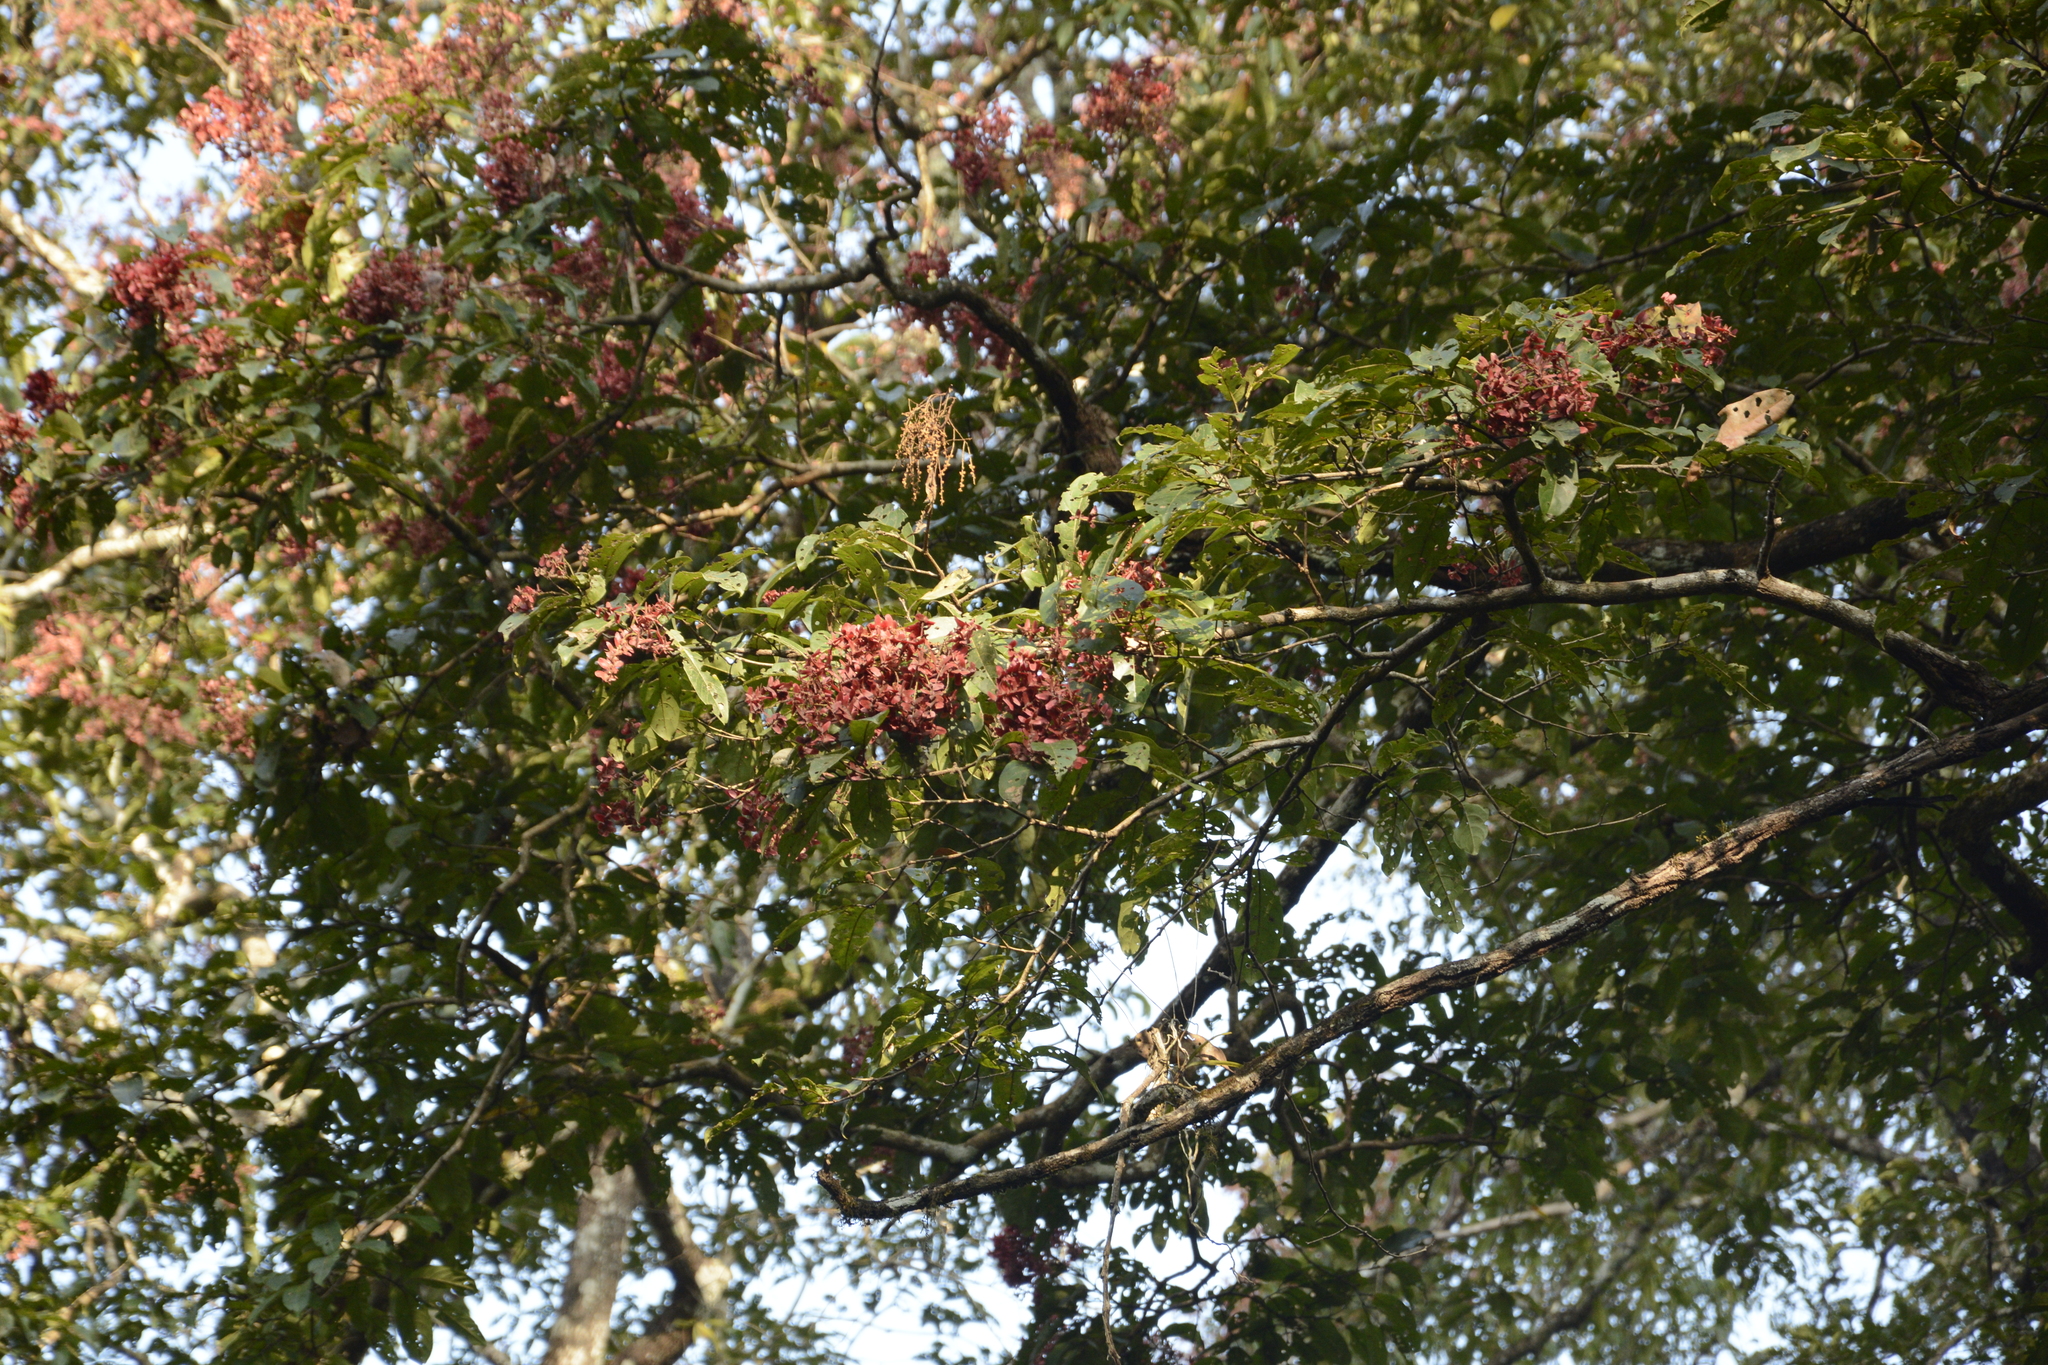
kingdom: Plantae
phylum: Tracheophyta
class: Magnoliopsida
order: Myrtales
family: Combretaceae
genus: Terminalia
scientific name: Terminalia paniculata
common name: Flowering murdah
